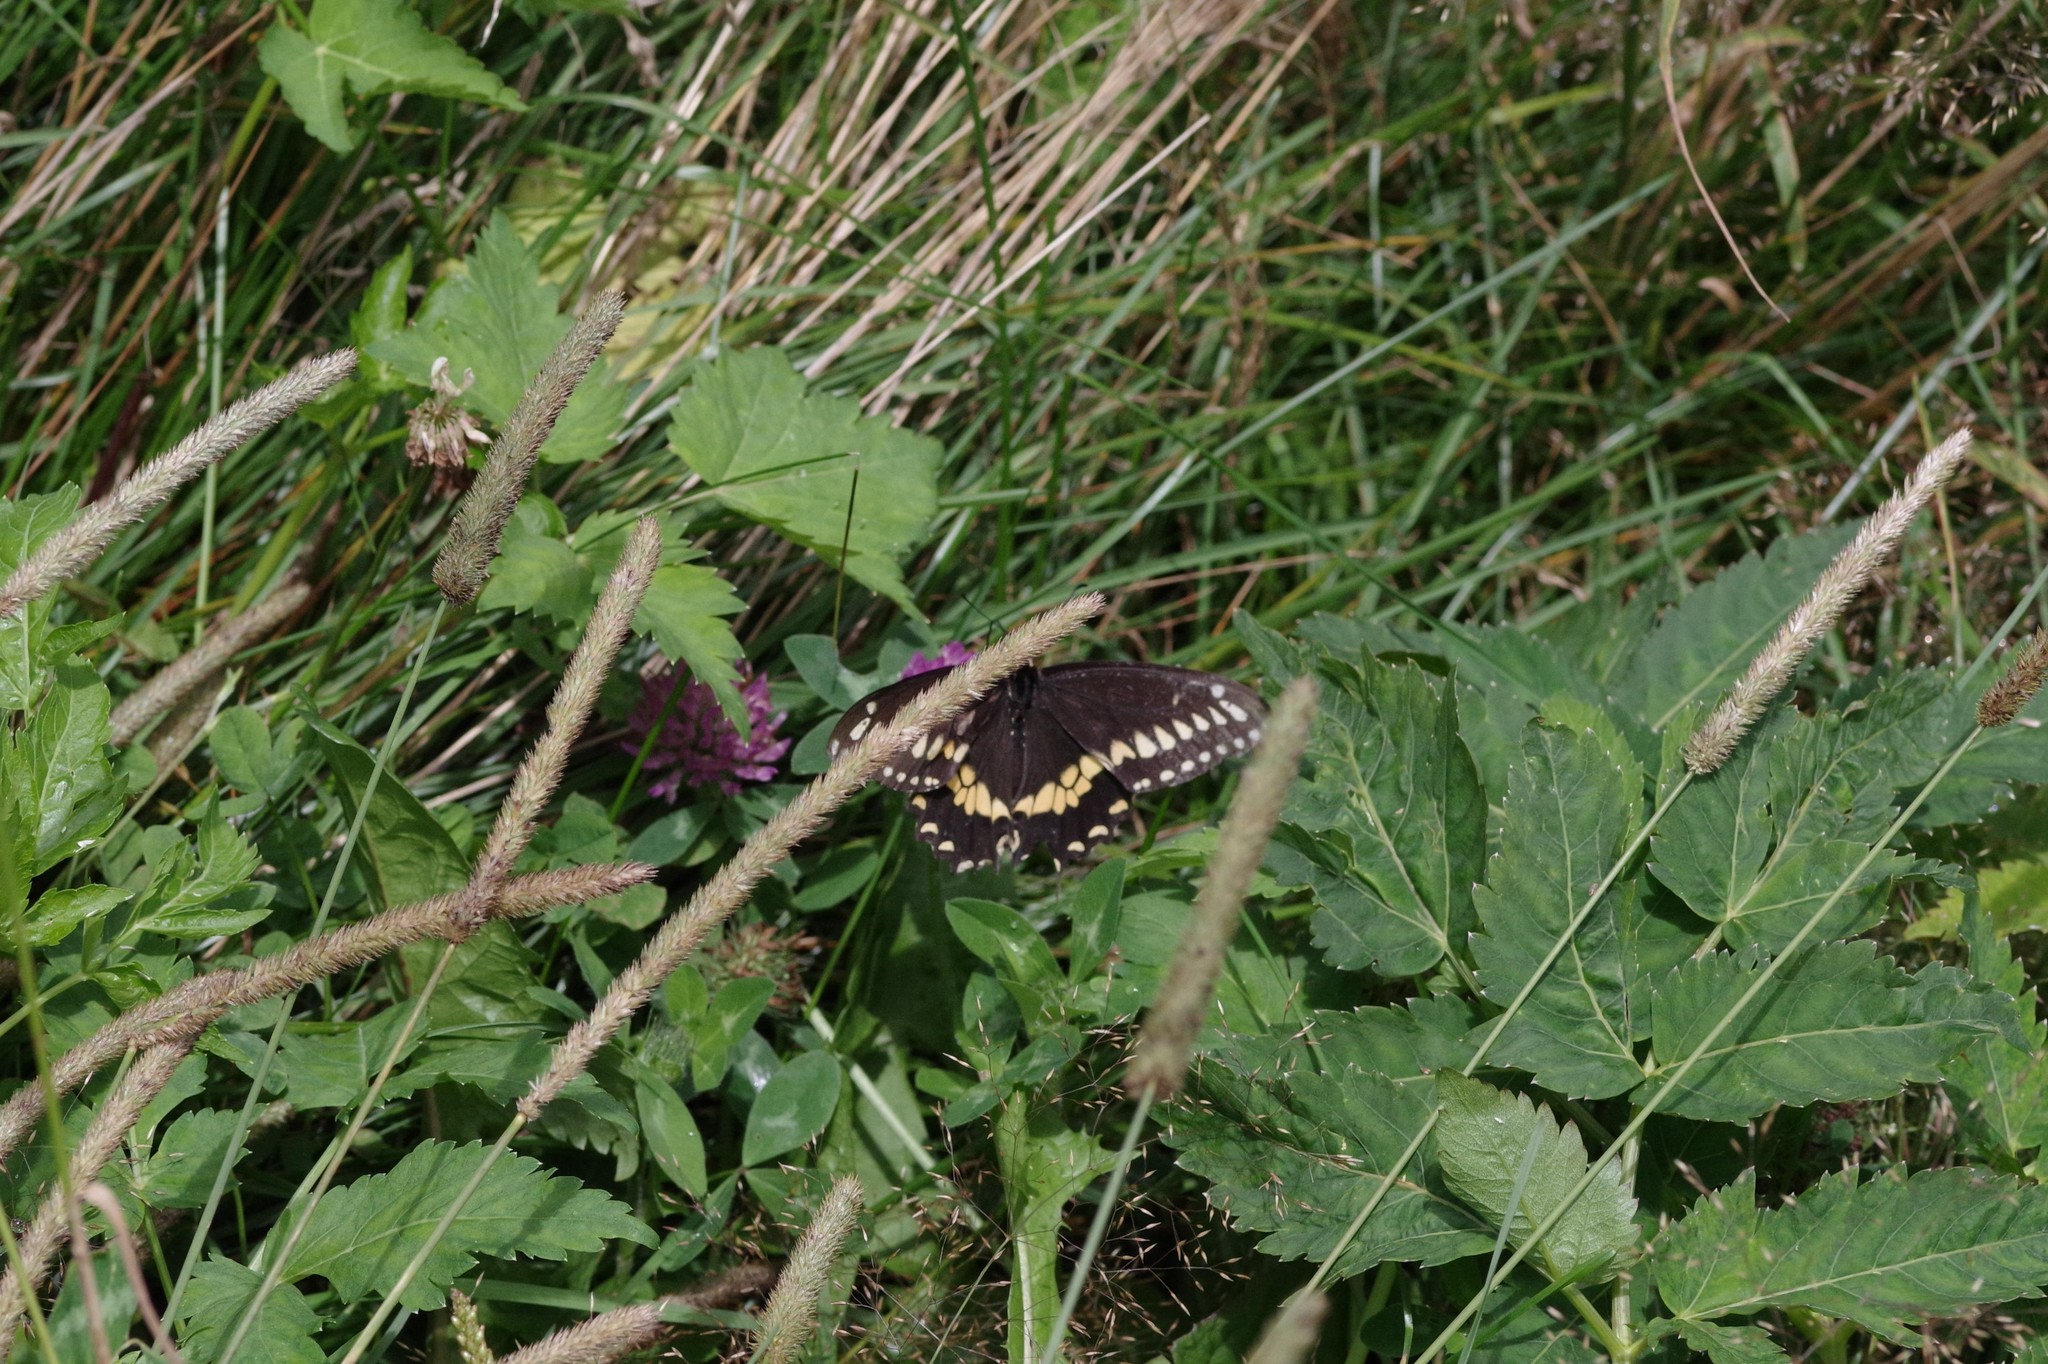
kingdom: Animalia
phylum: Arthropoda
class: Insecta
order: Lepidoptera
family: Papilionidae
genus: Papilio
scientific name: Papilio polyxenes
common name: Black swallowtail
